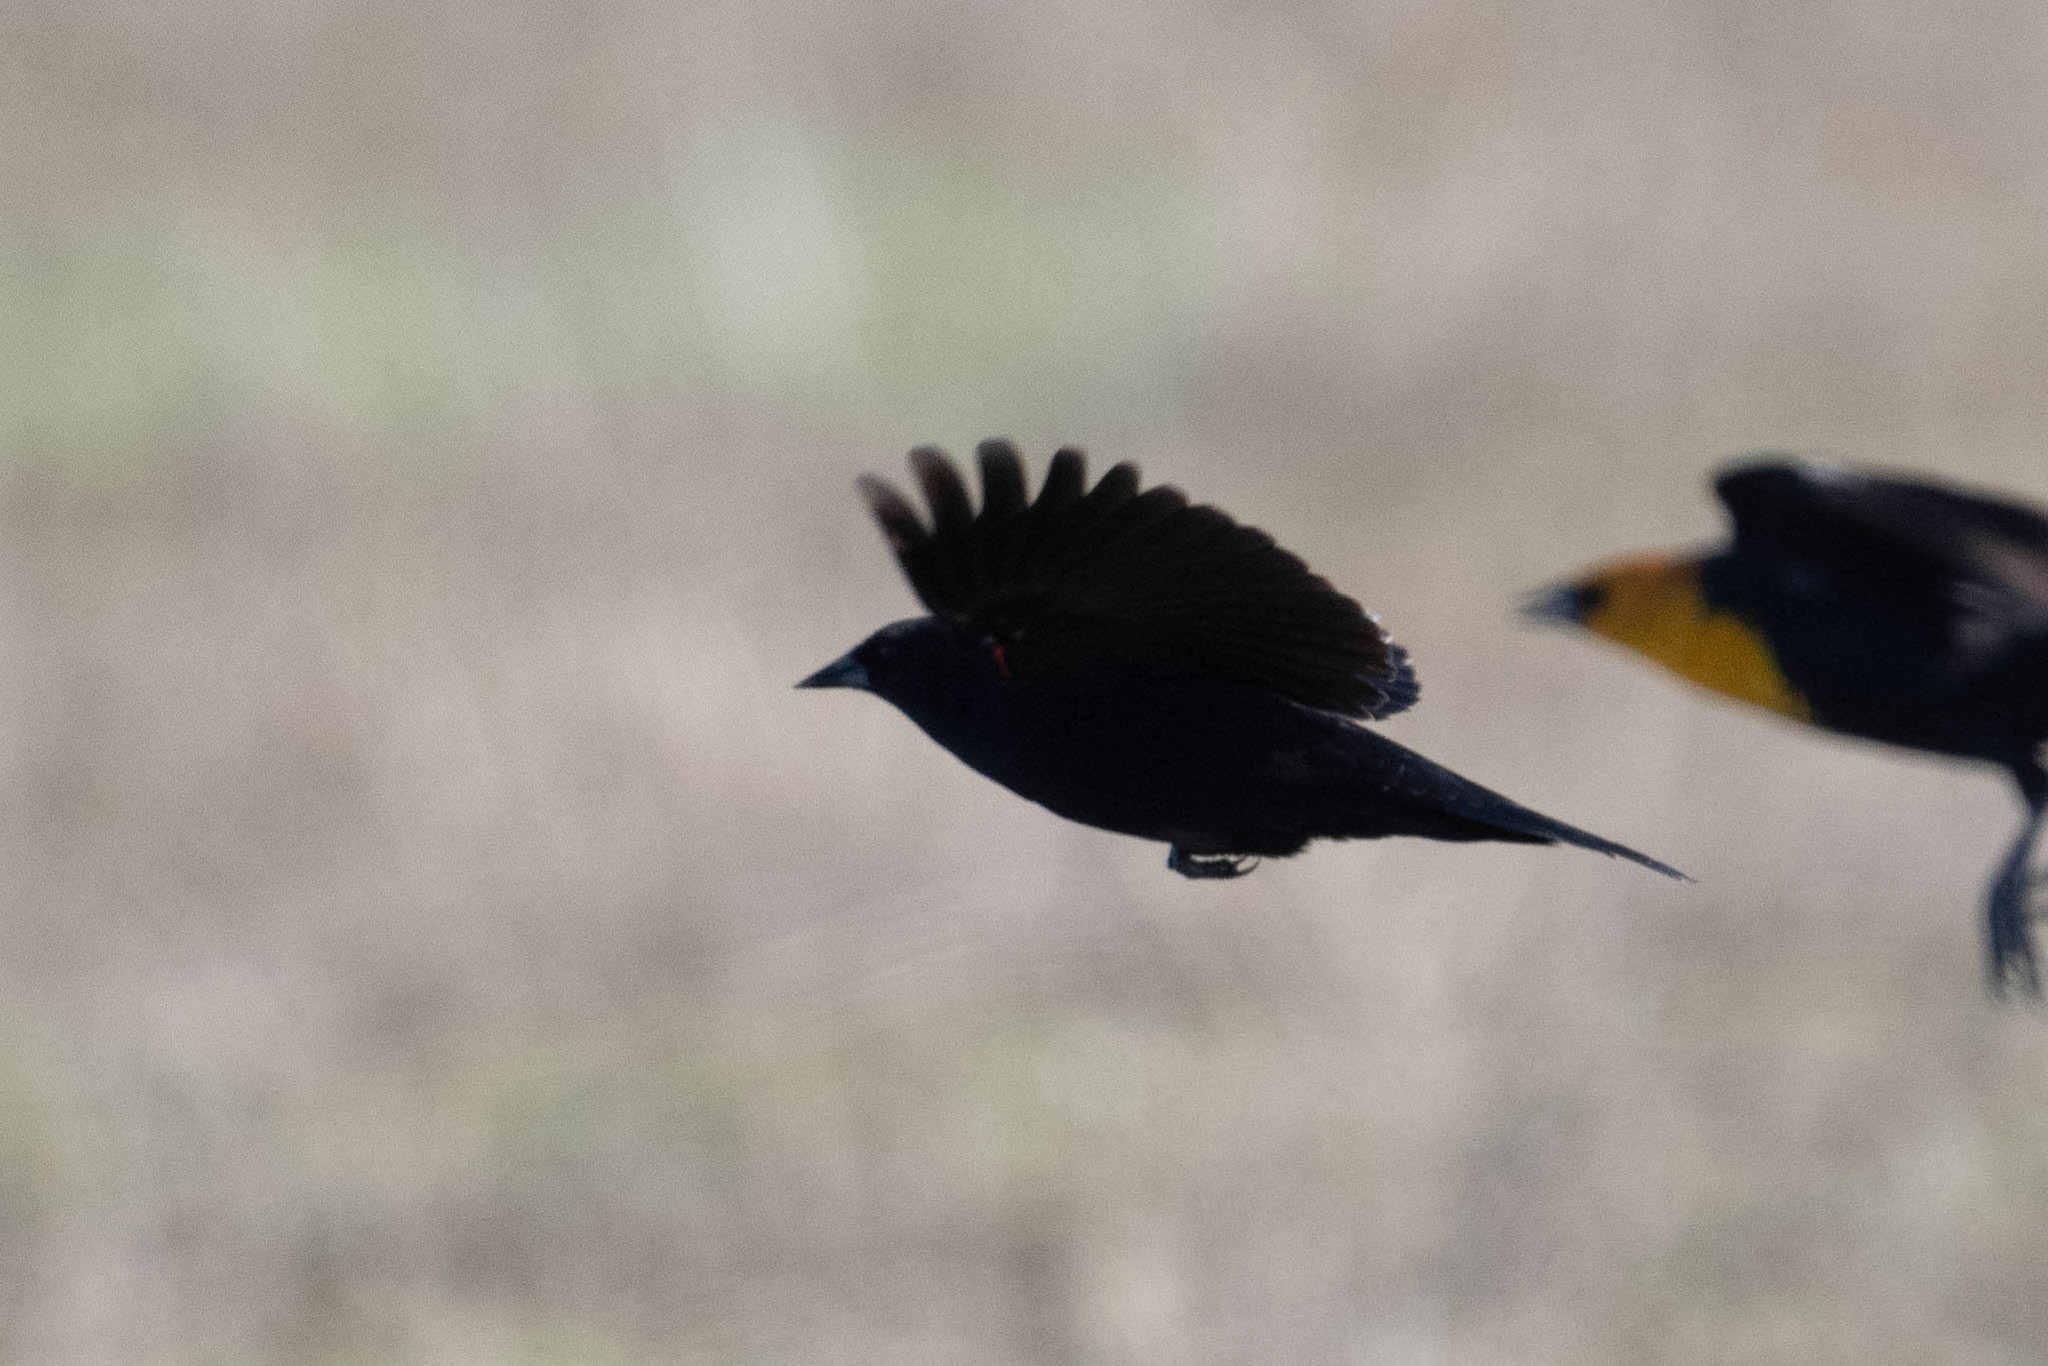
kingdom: Animalia
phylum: Chordata
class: Aves
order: Passeriformes
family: Icteridae
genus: Xanthocephalus
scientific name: Xanthocephalus xanthocephalus
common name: Yellow-headed blackbird
